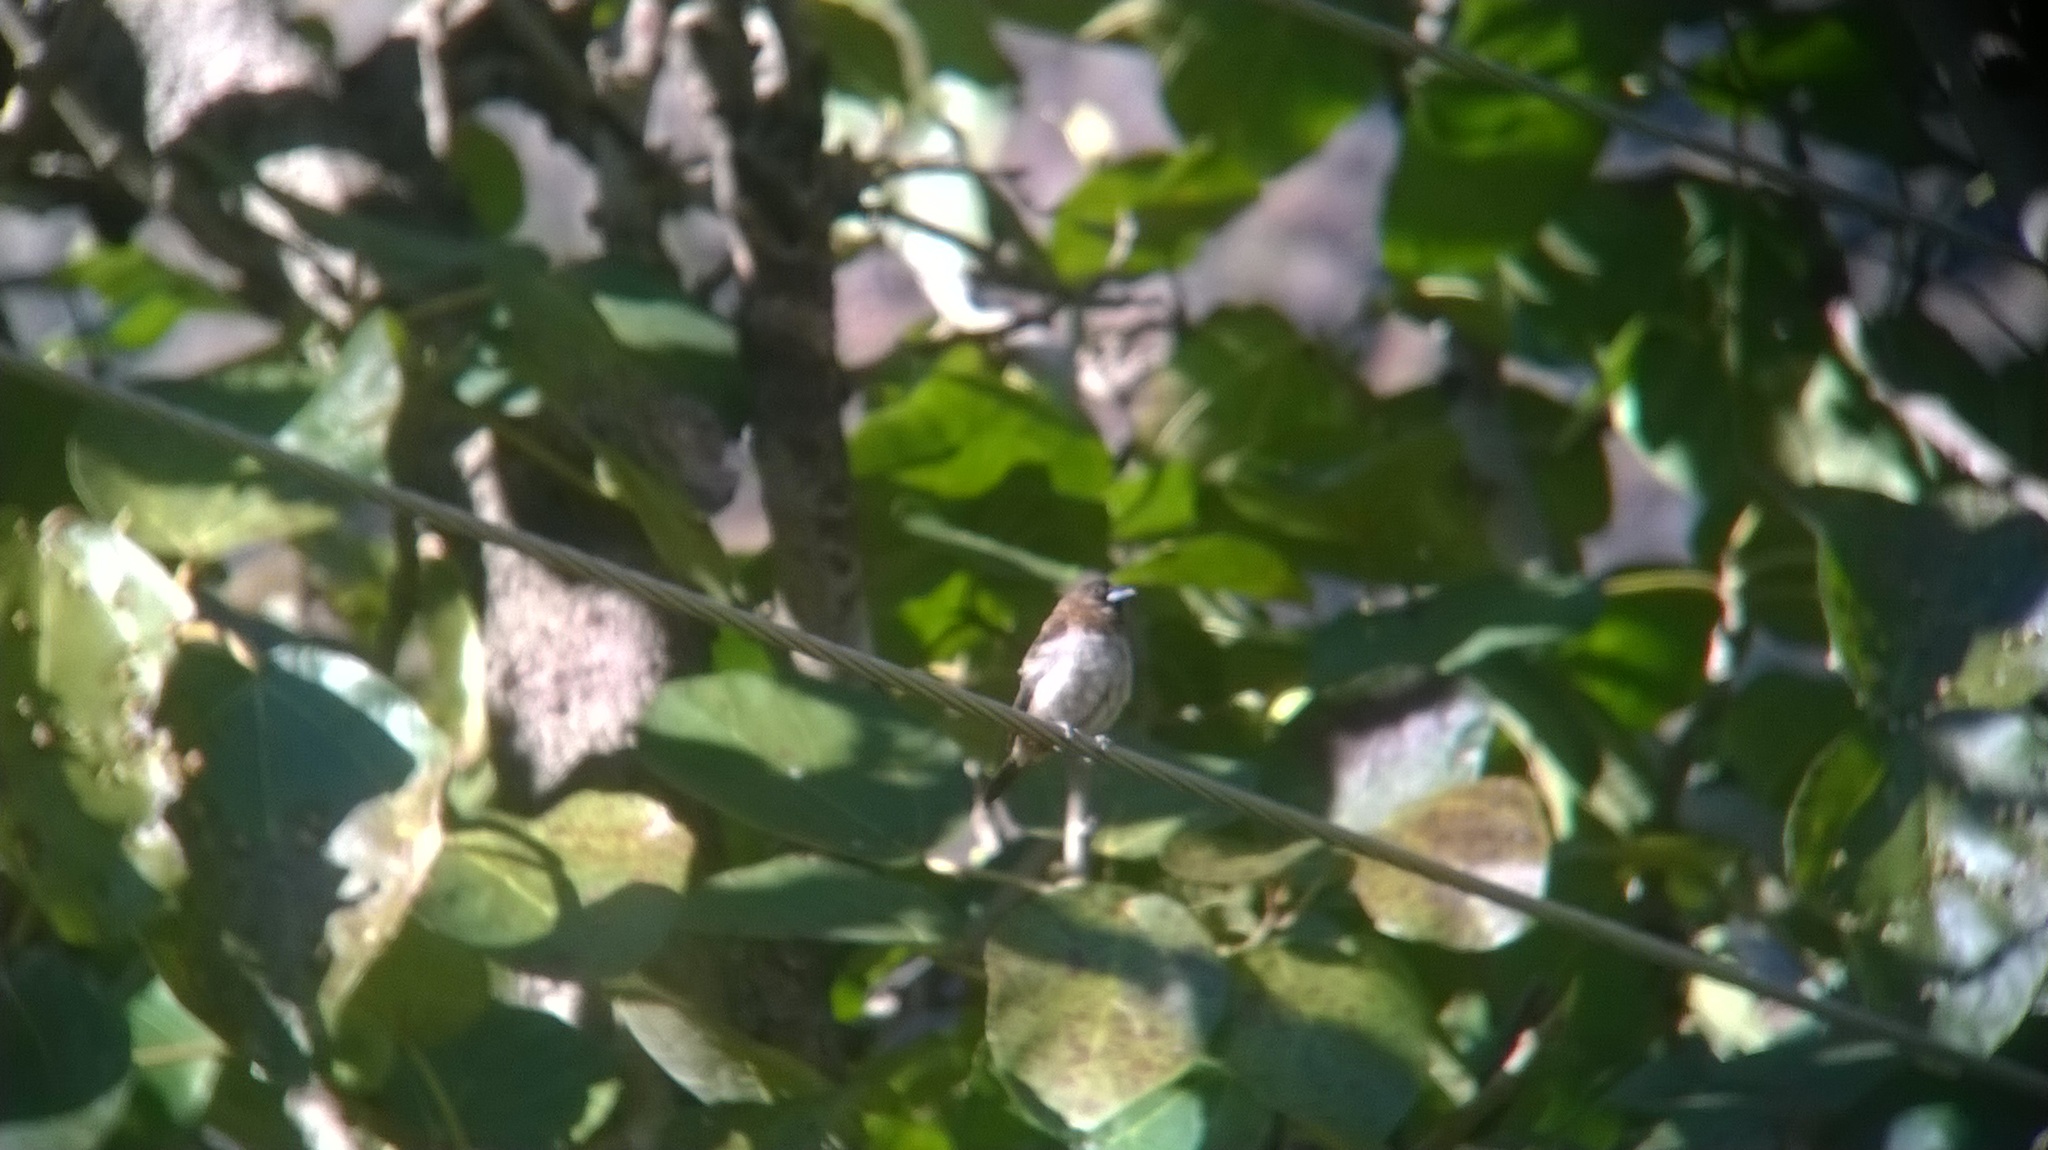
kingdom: Animalia
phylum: Chordata
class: Aves
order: Passeriformes
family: Estrildidae
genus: Lonchura
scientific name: Lonchura striata
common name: White-rumped munia
